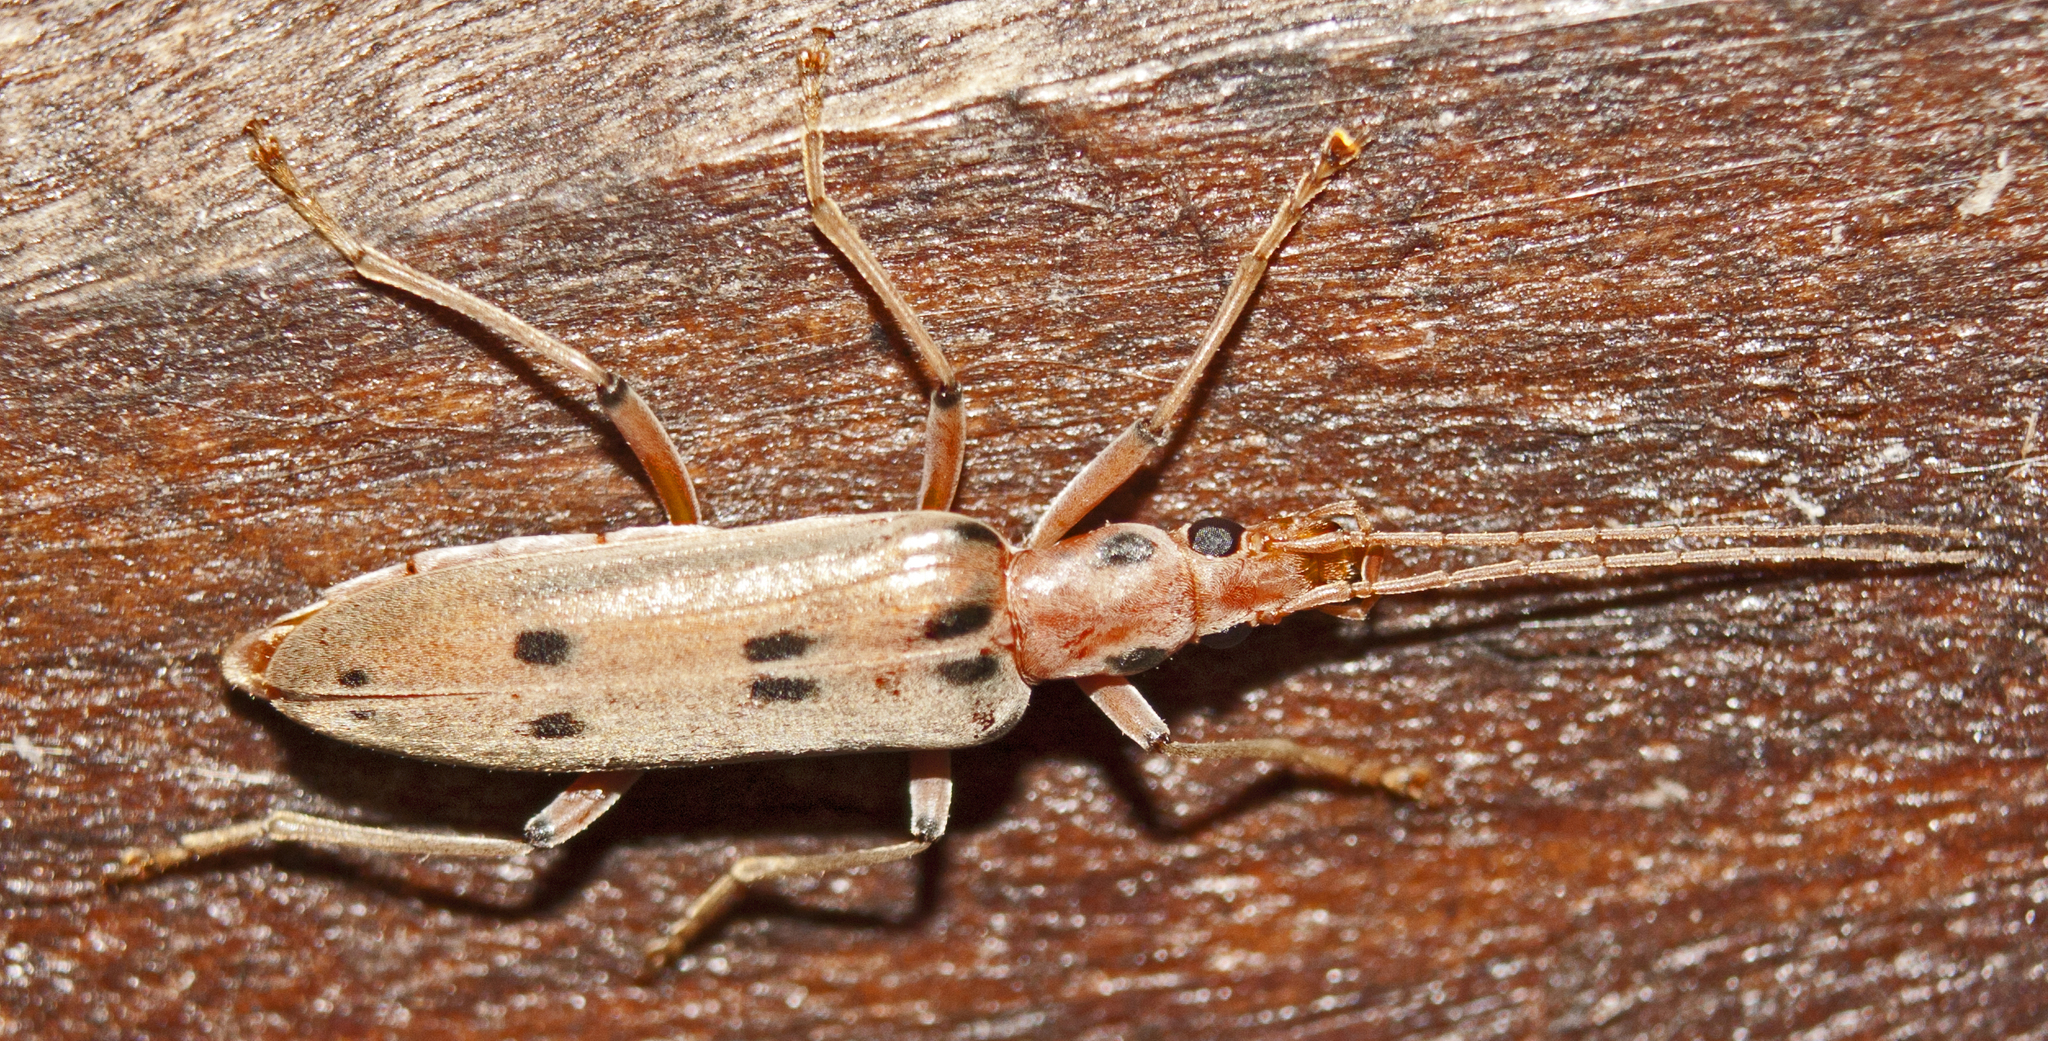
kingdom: Animalia
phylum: Arthropoda
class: Insecta
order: Coleoptera
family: Oedemeridae
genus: Parisopalpus
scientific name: Parisopalpus
